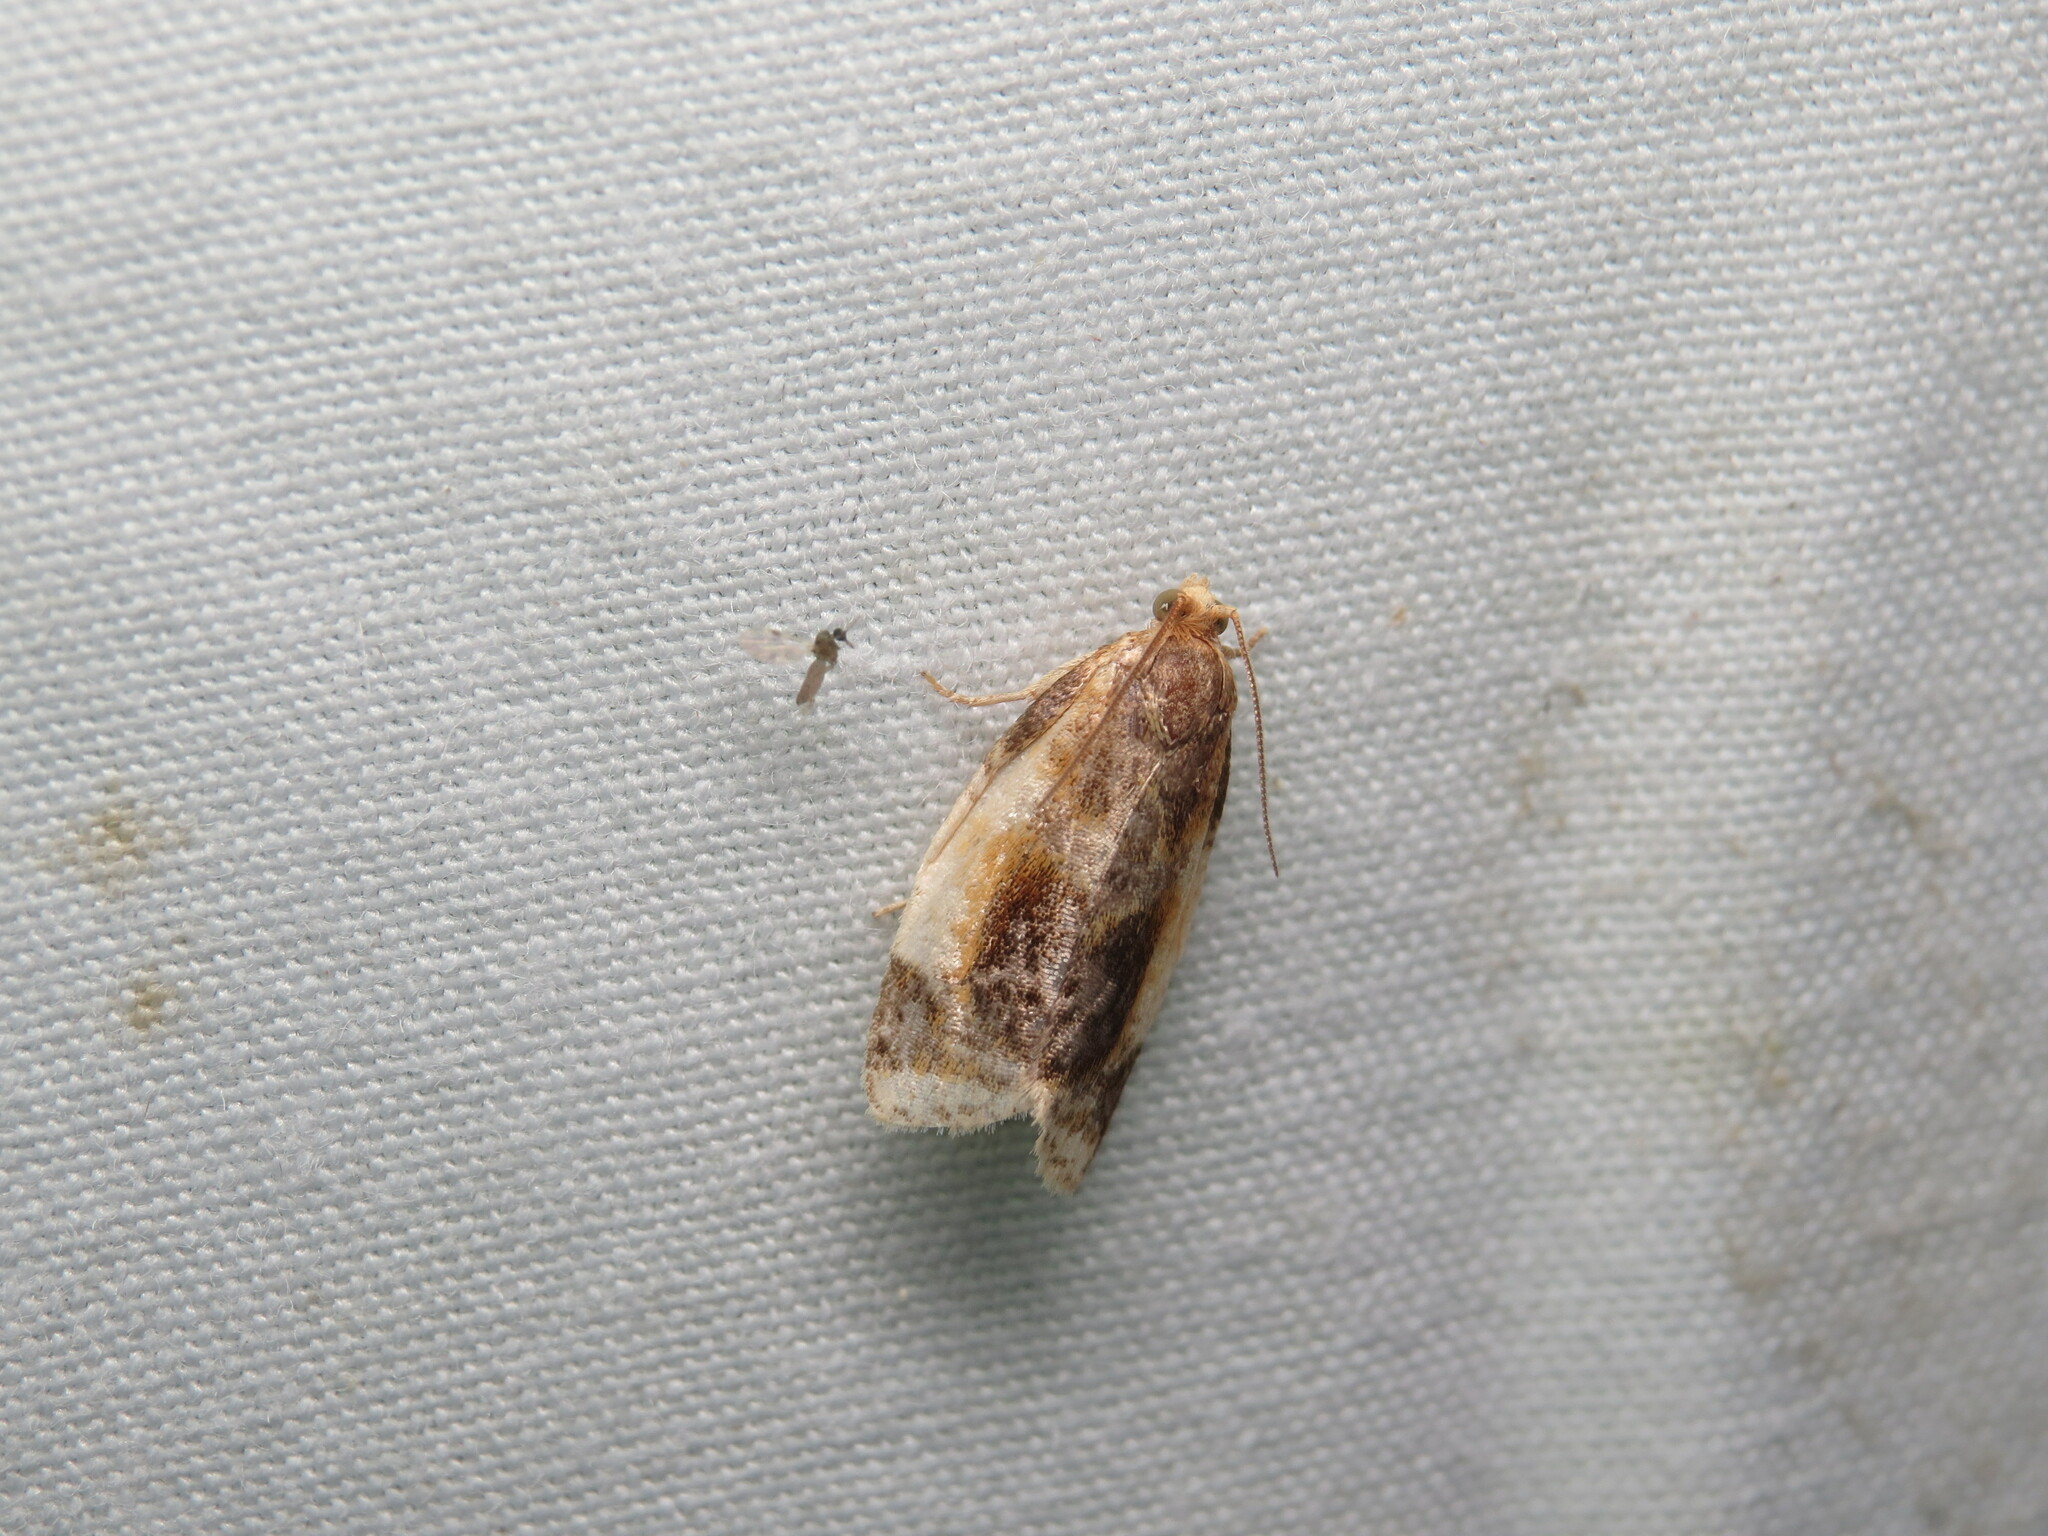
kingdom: Animalia
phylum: Arthropoda
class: Insecta
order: Lepidoptera
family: Tortricidae
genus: Clepsis
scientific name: Clepsis melaleucanus
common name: American apple tortrix
